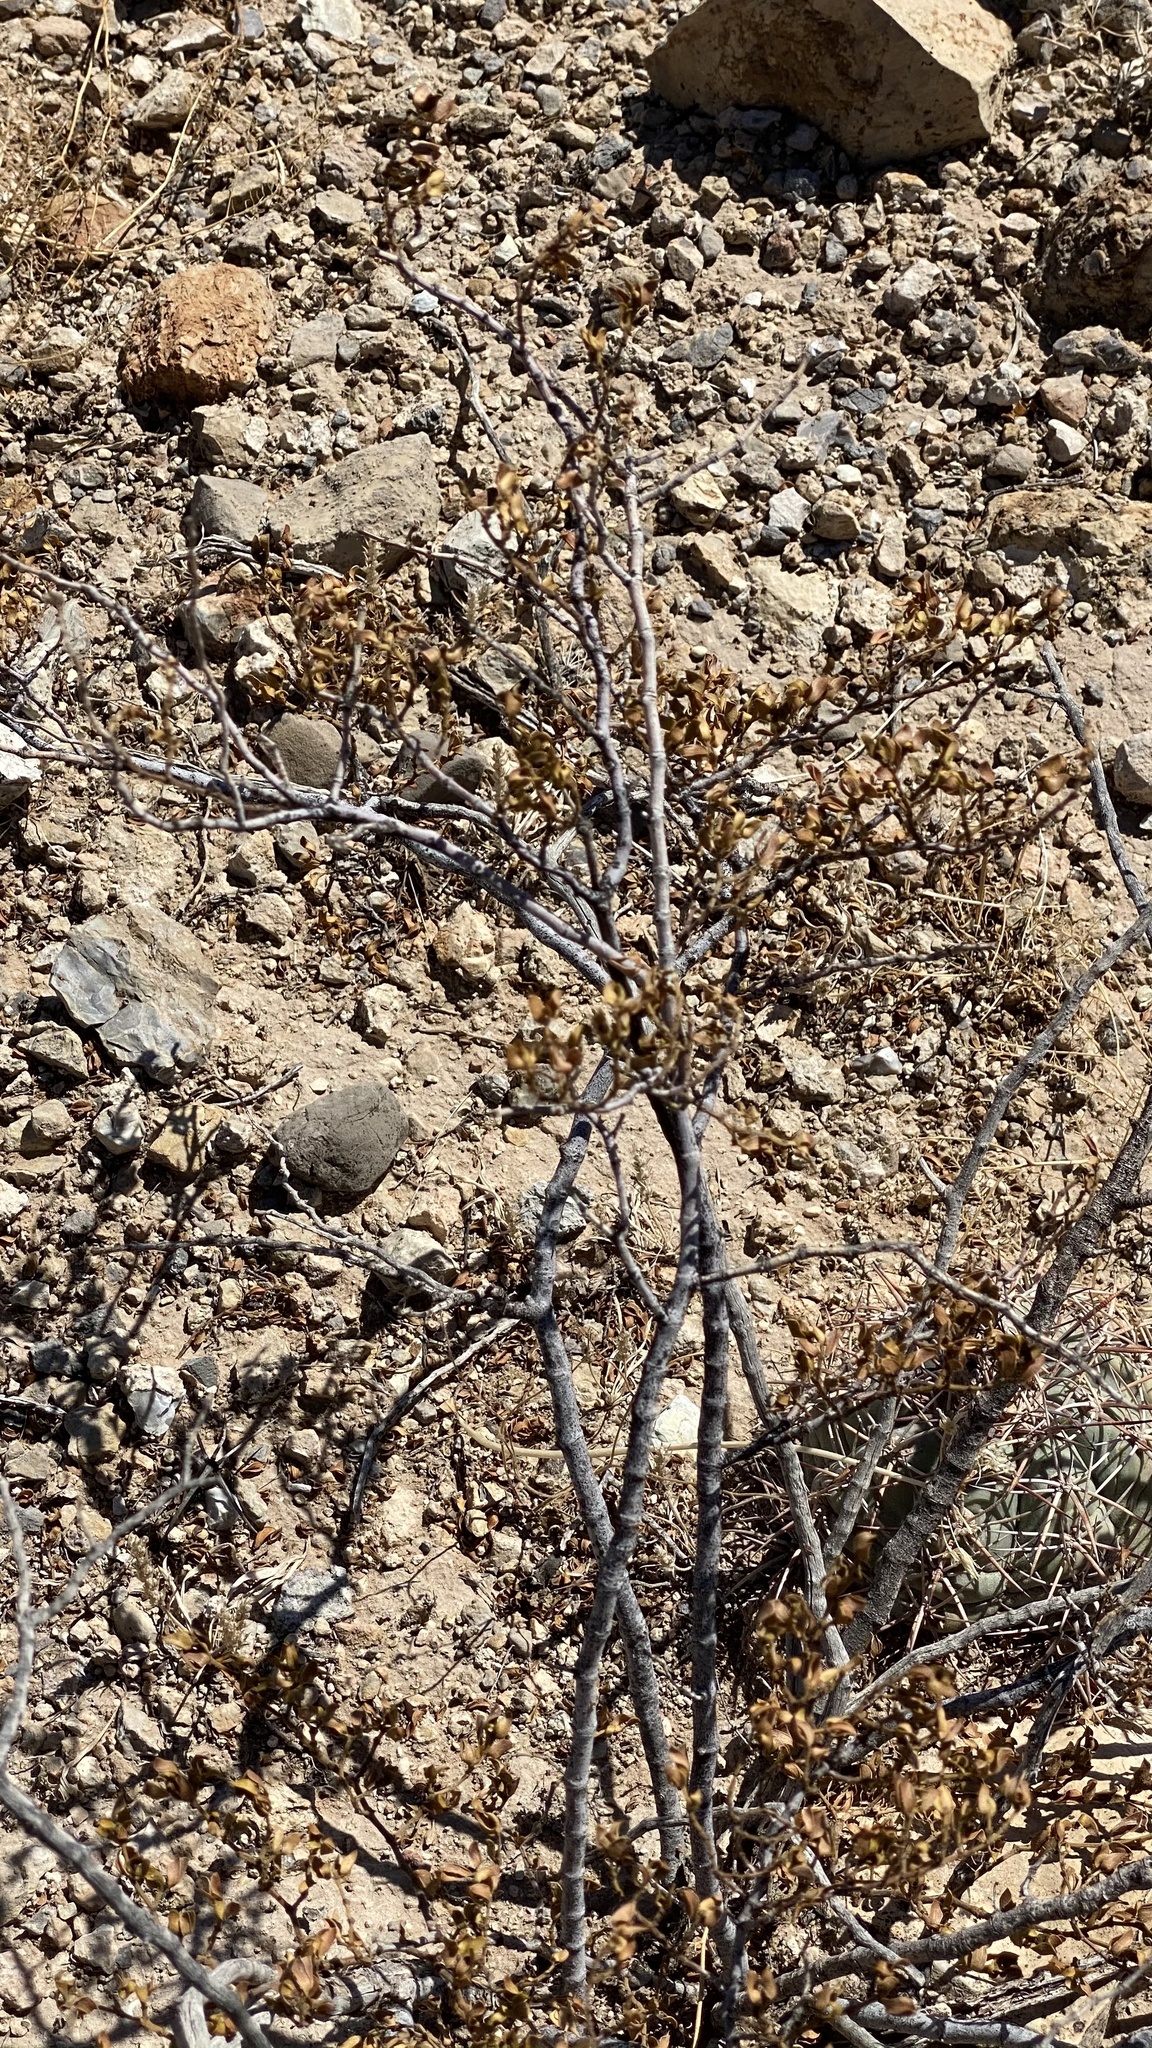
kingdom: Plantae
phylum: Tracheophyta
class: Magnoliopsida
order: Zygophyllales
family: Zygophyllaceae
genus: Larrea
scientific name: Larrea tridentata
